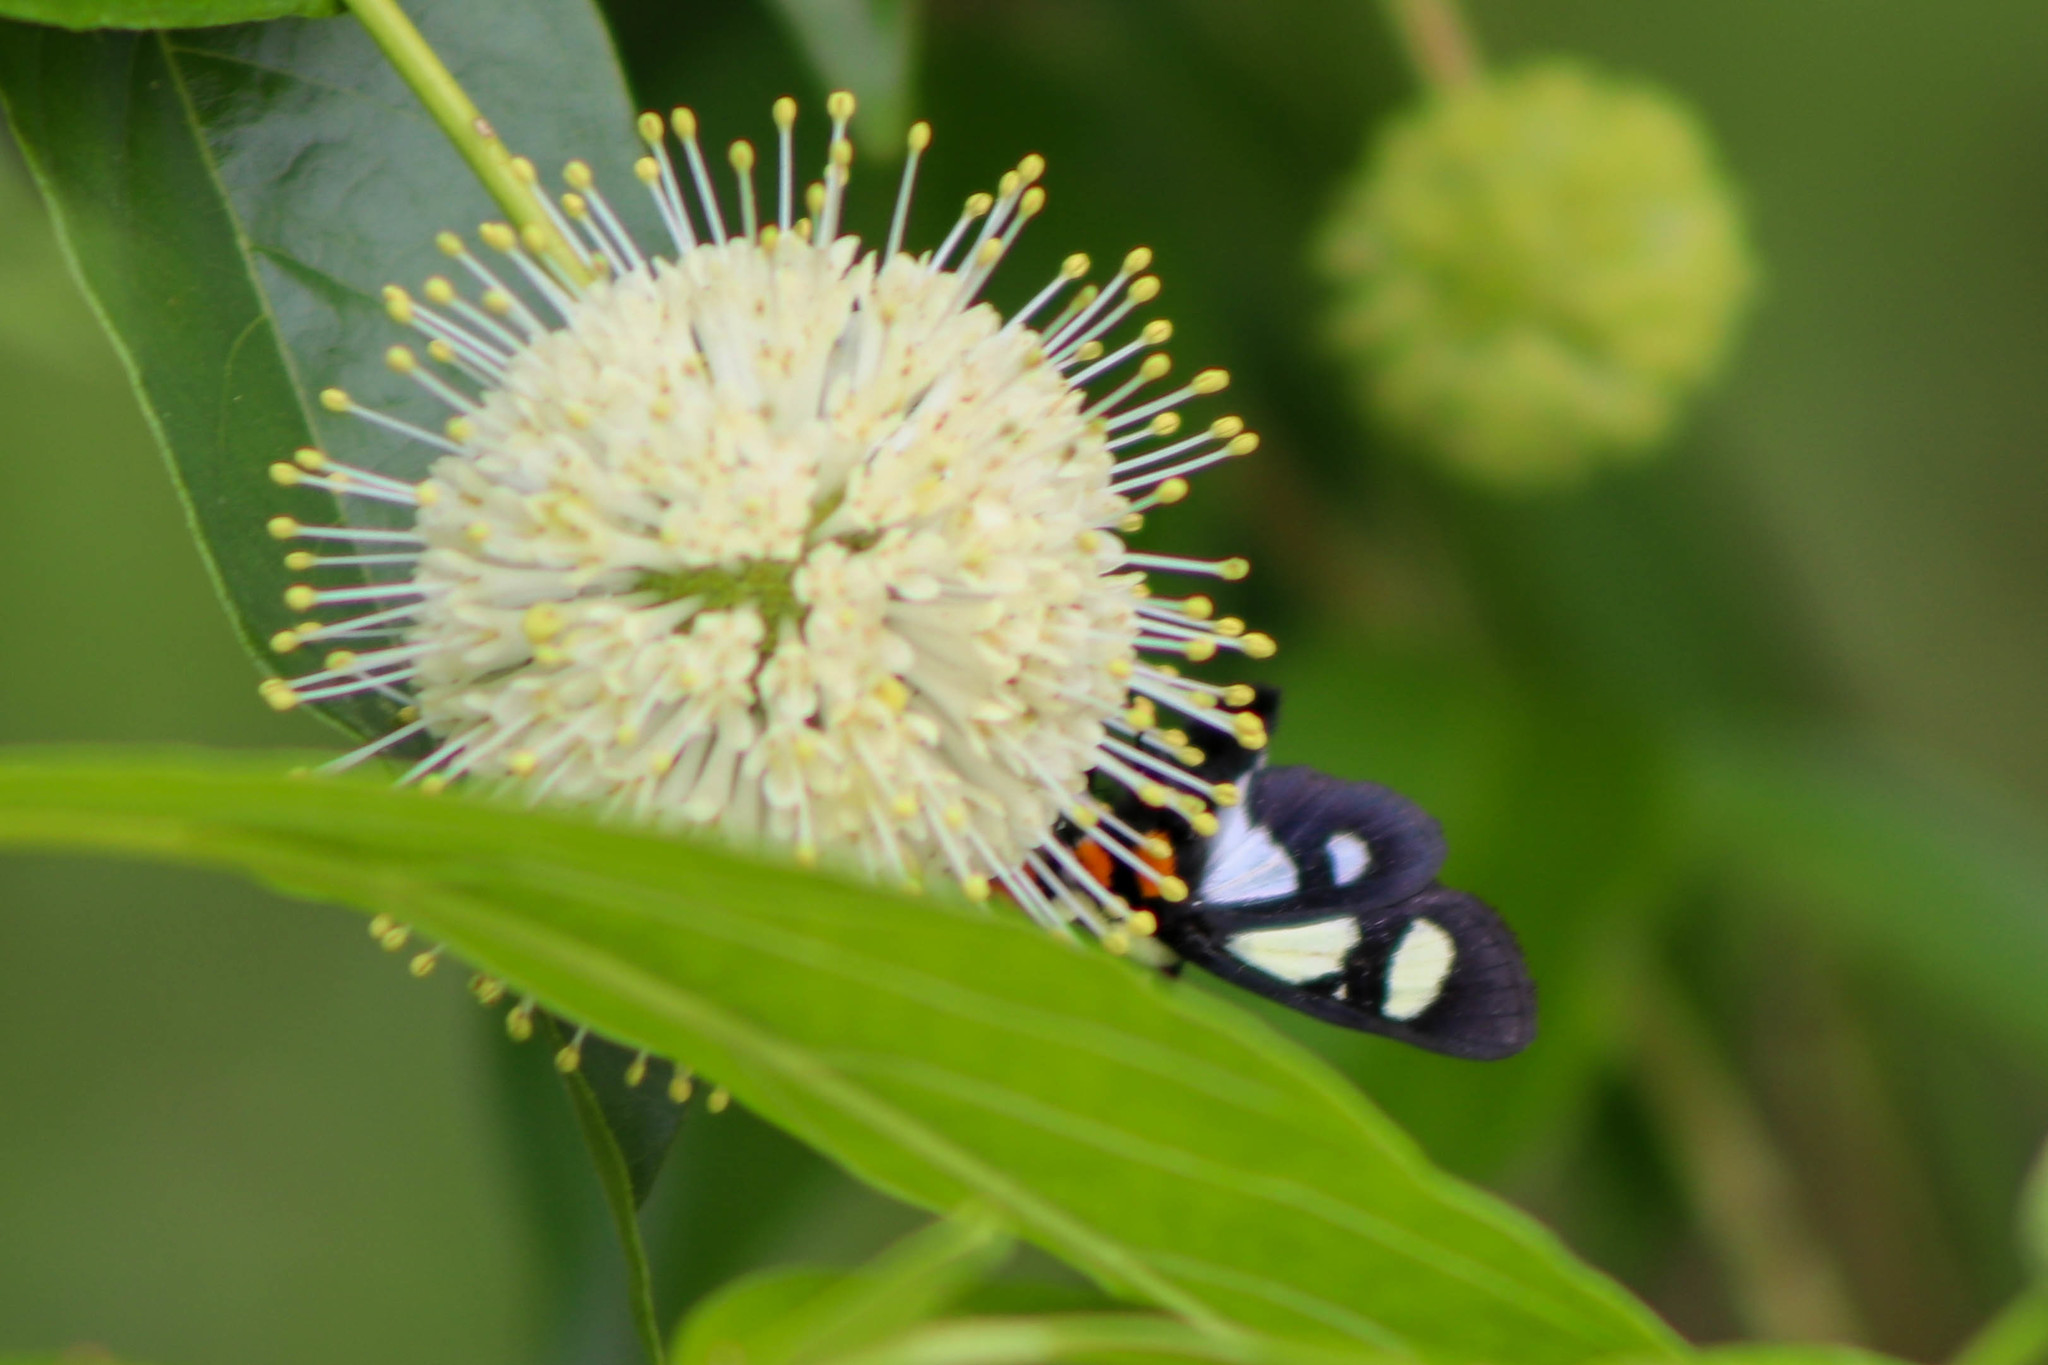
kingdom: Animalia
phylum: Arthropoda
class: Insecta
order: Lepidoptera
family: Noctuidae
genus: Alypia
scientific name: Alypia octomaculata
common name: Eight-spotted forester
